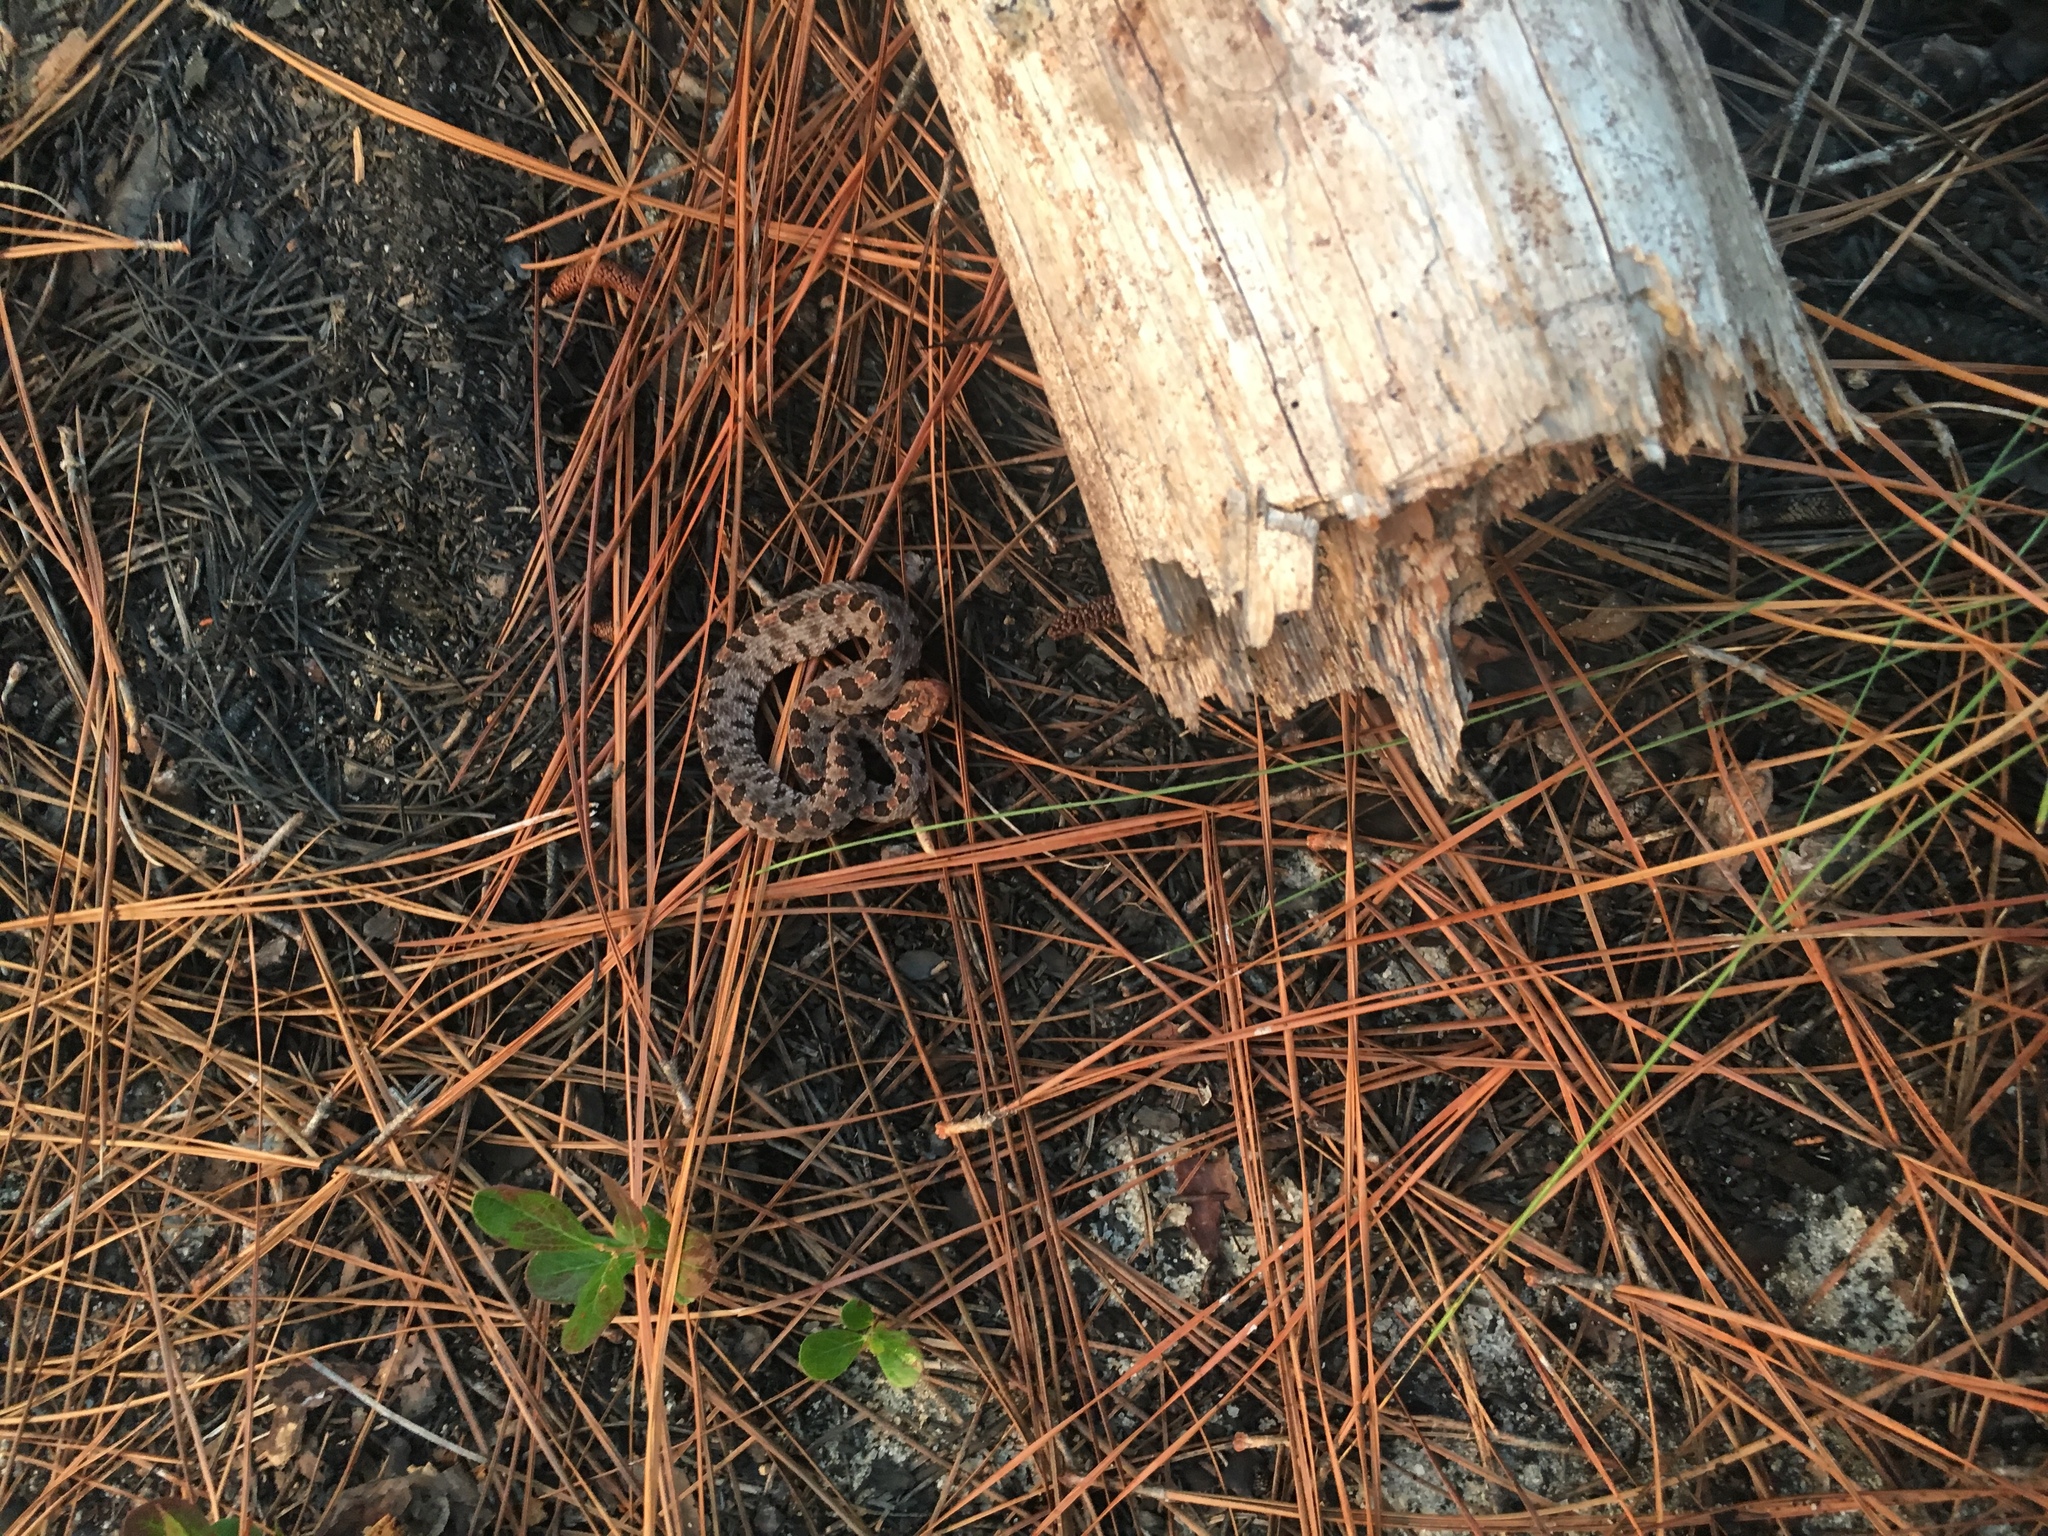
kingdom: Animalia
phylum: Chordata
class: Squamata
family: Viperidae
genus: Sistrurus
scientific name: Sistrurus miliarius
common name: Pygmy rattlesnake
